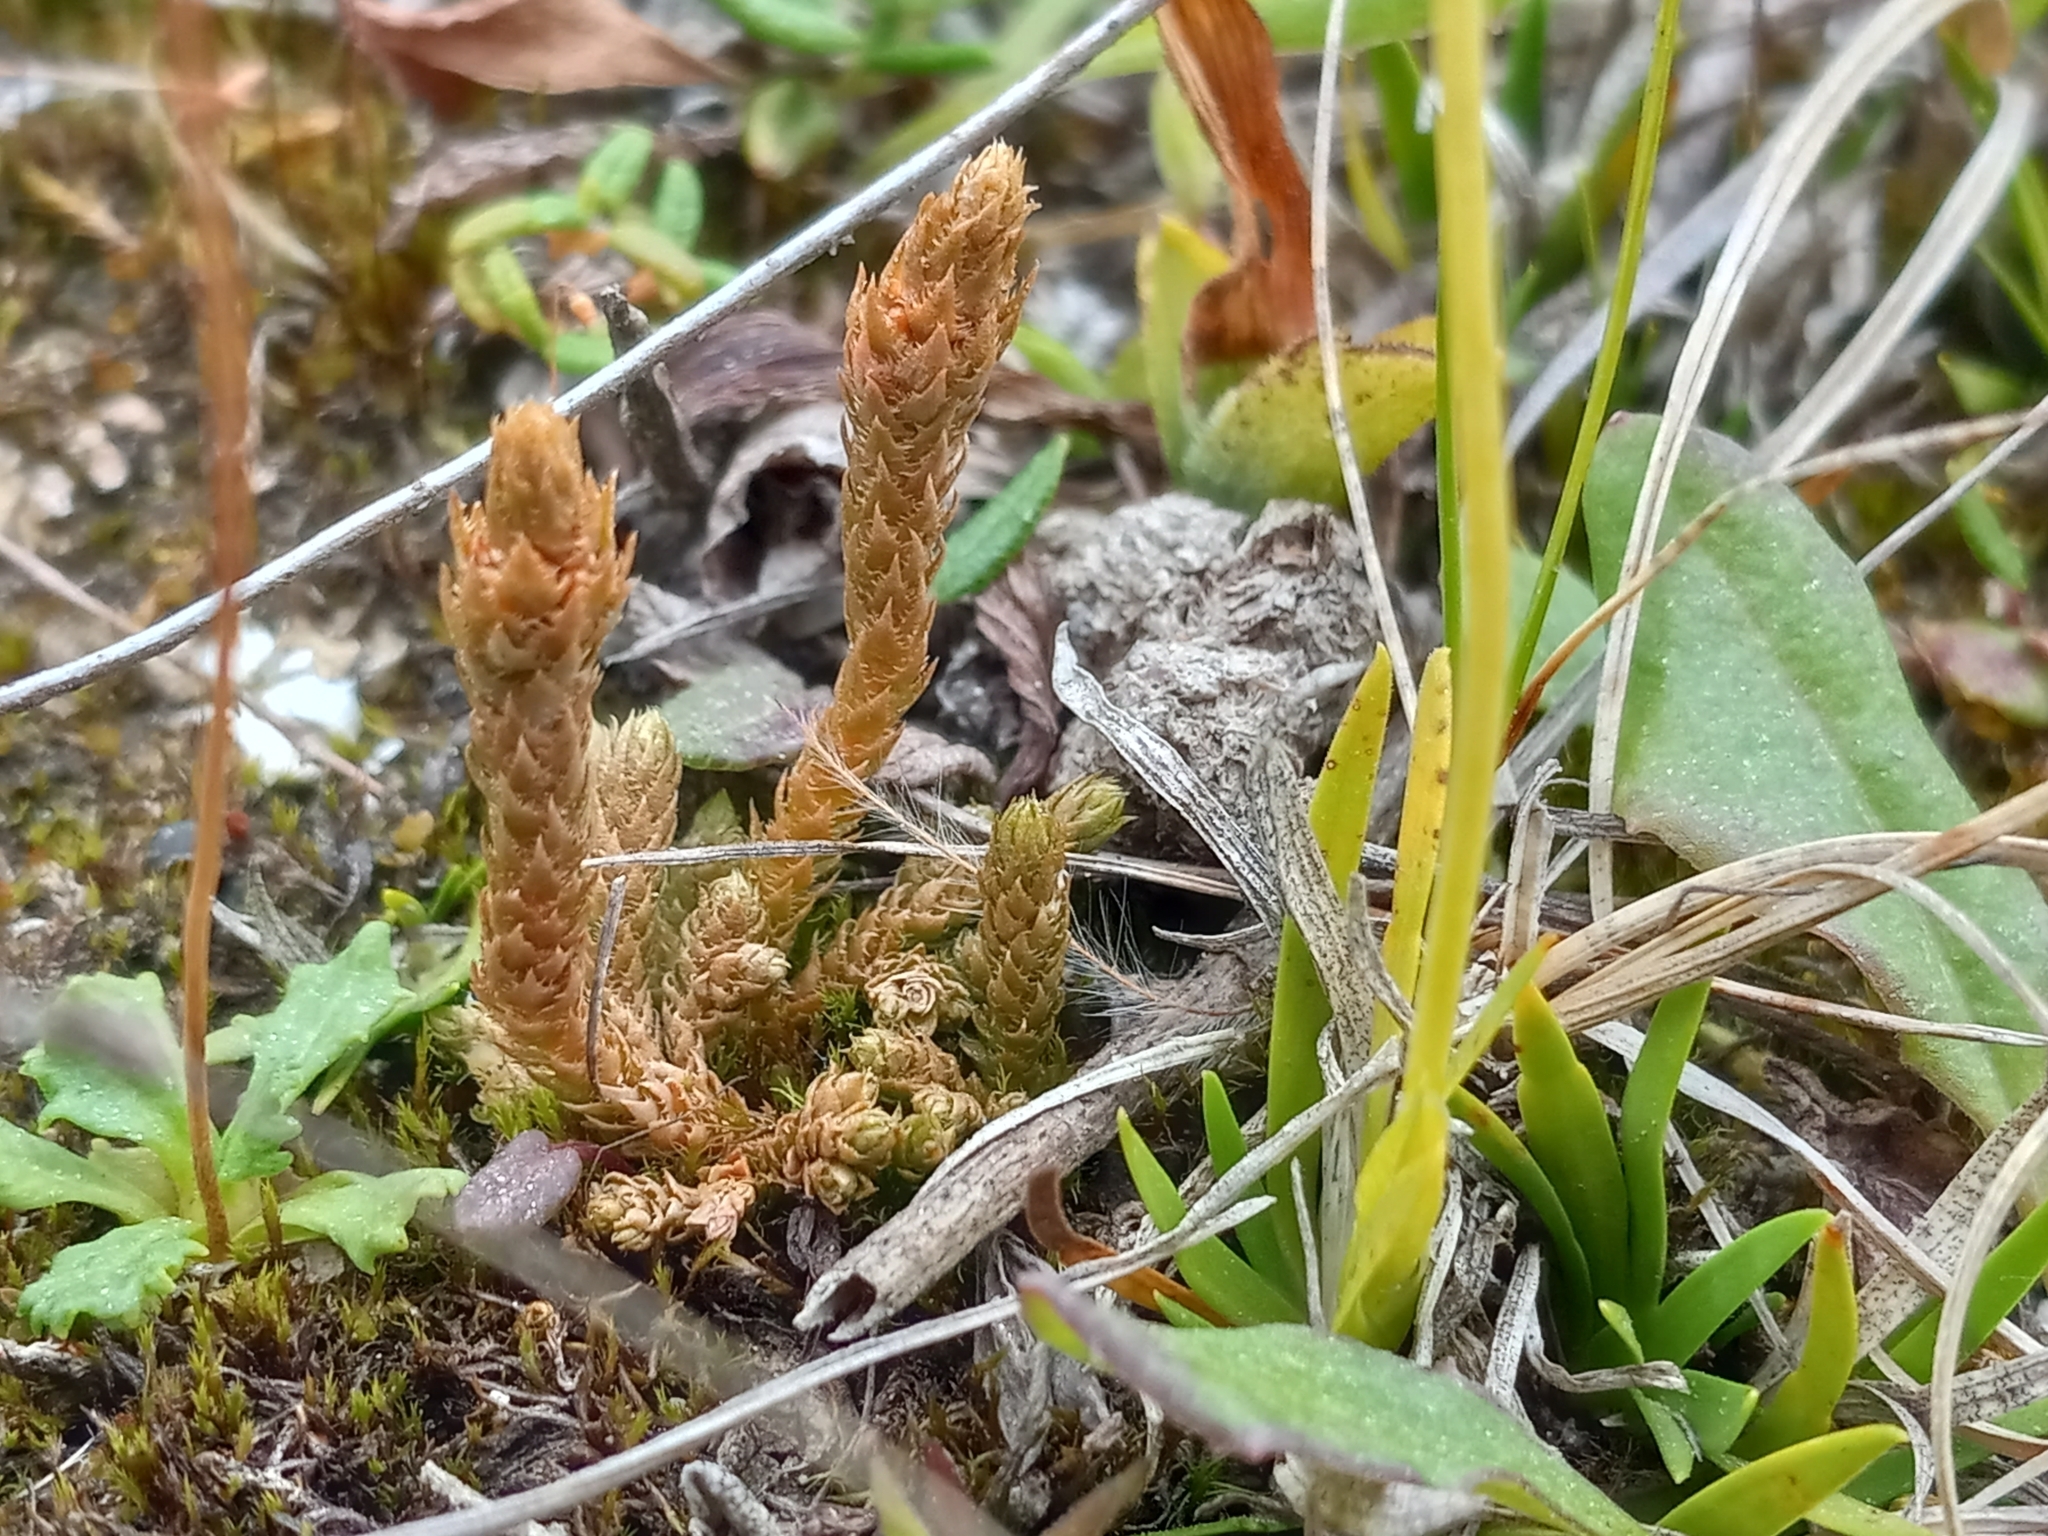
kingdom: Plantae
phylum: Tracheophyta
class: Lycopodiopsida
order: Selaginellales
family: Selaginellaceae
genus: Selaginella
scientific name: Selaginella selaginoides
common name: Prickly mountain-moss
